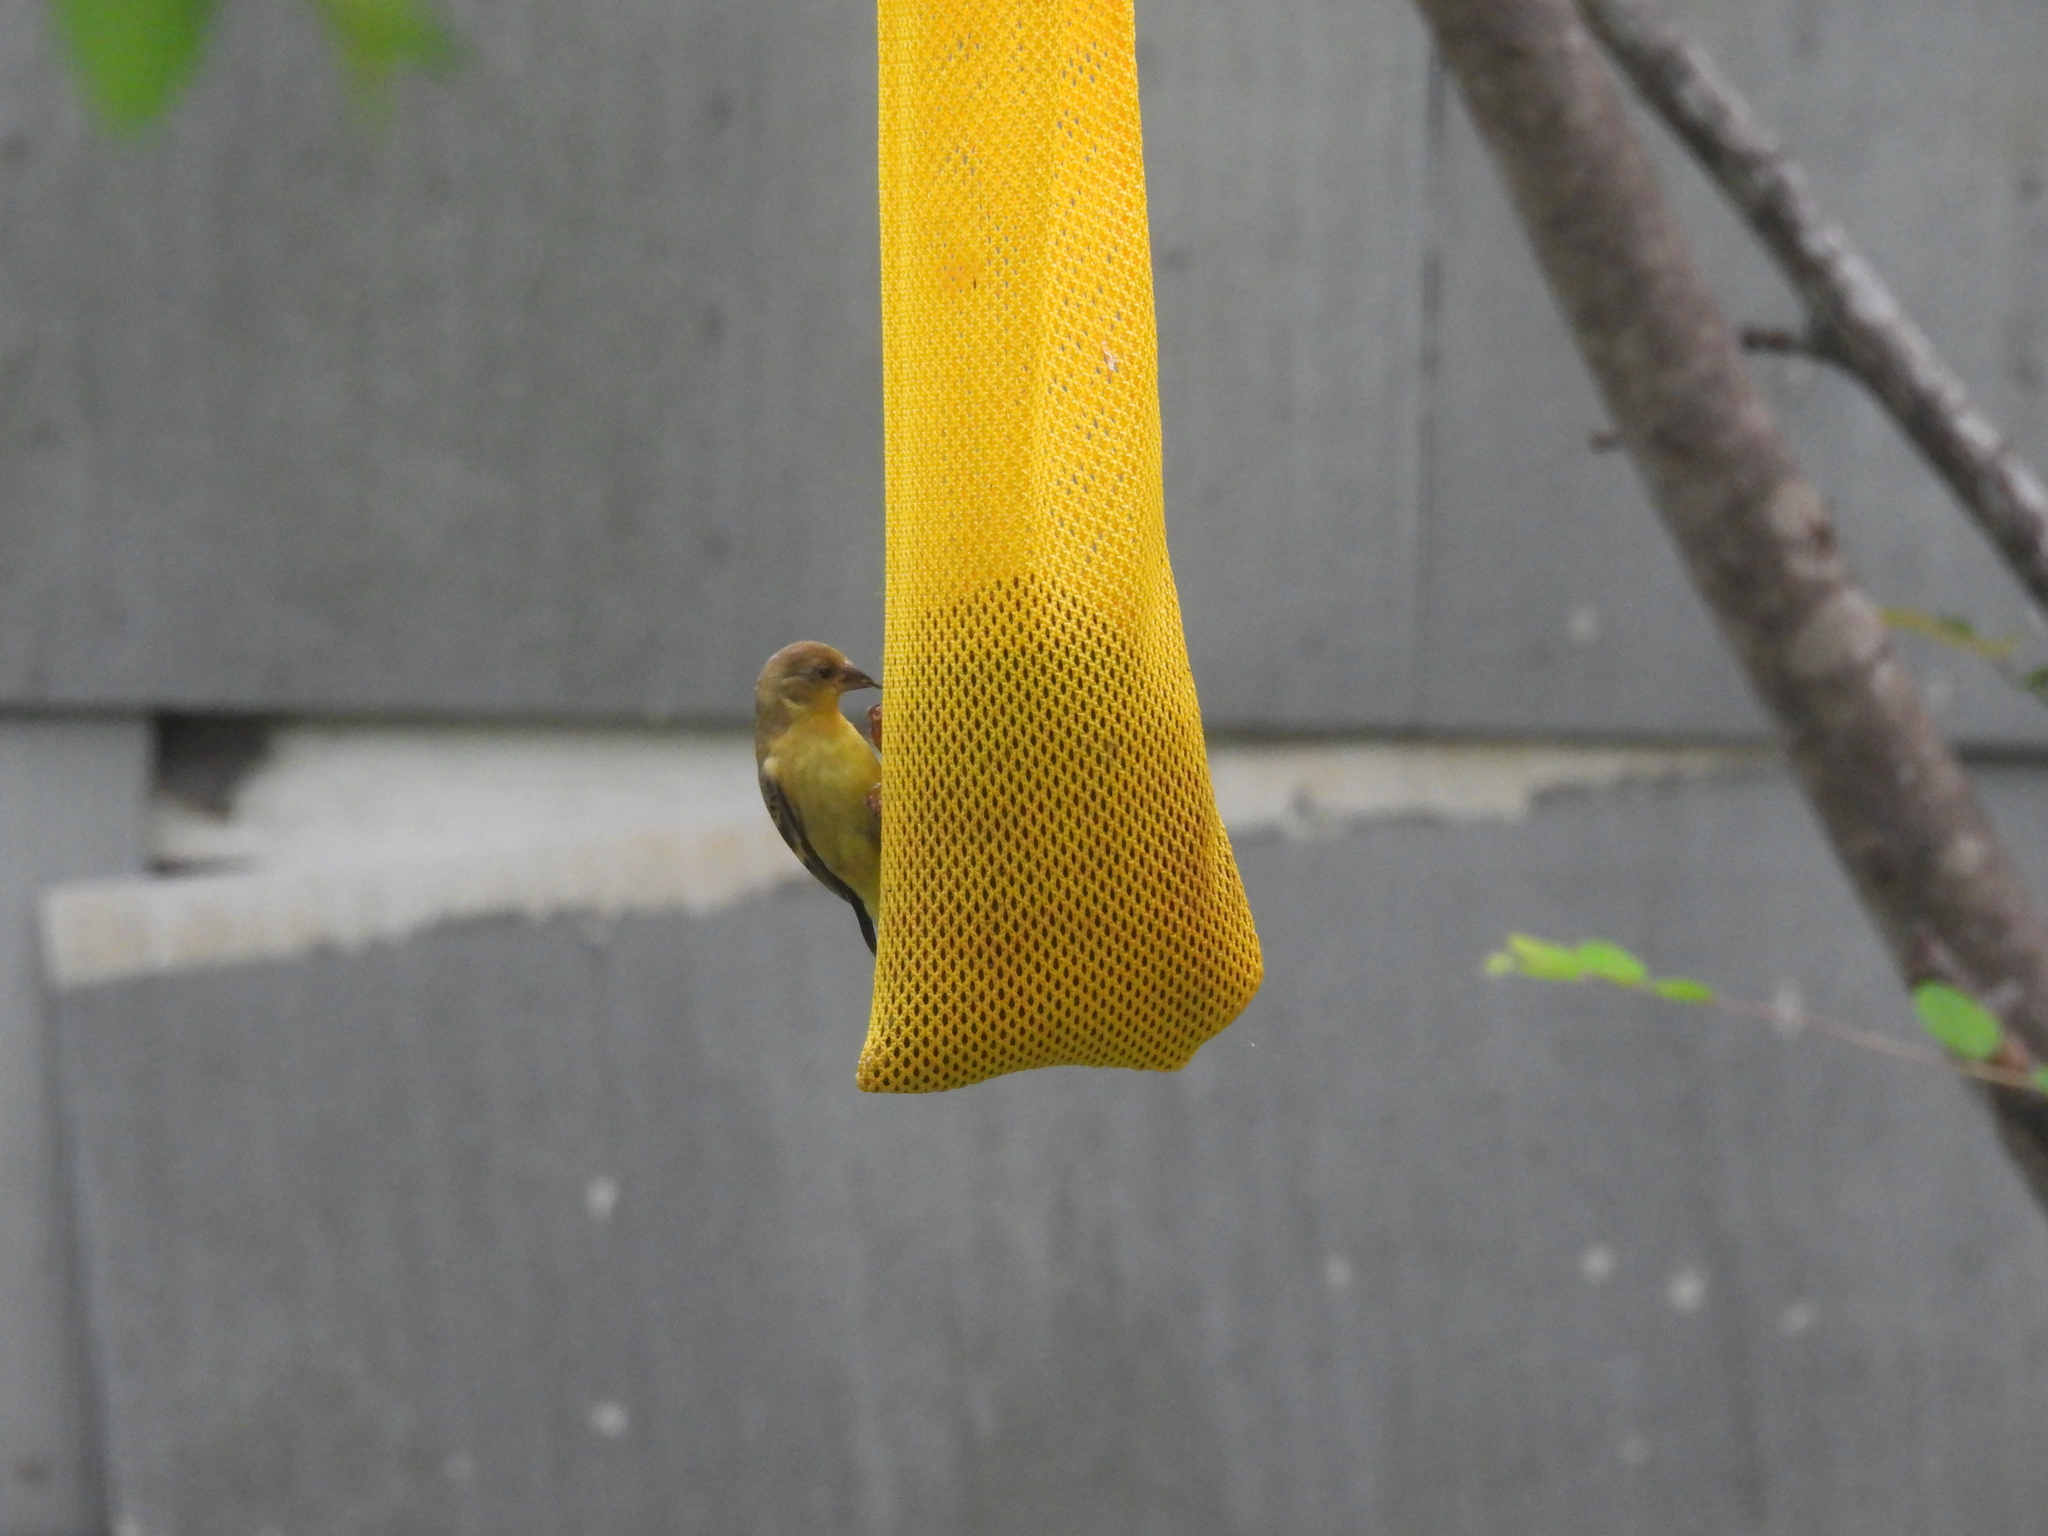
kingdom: Animalia
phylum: Chordata
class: Aves
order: Passeriformes
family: Fringillidae
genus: Spinus
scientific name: Spinus tristis
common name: American goldfinch
